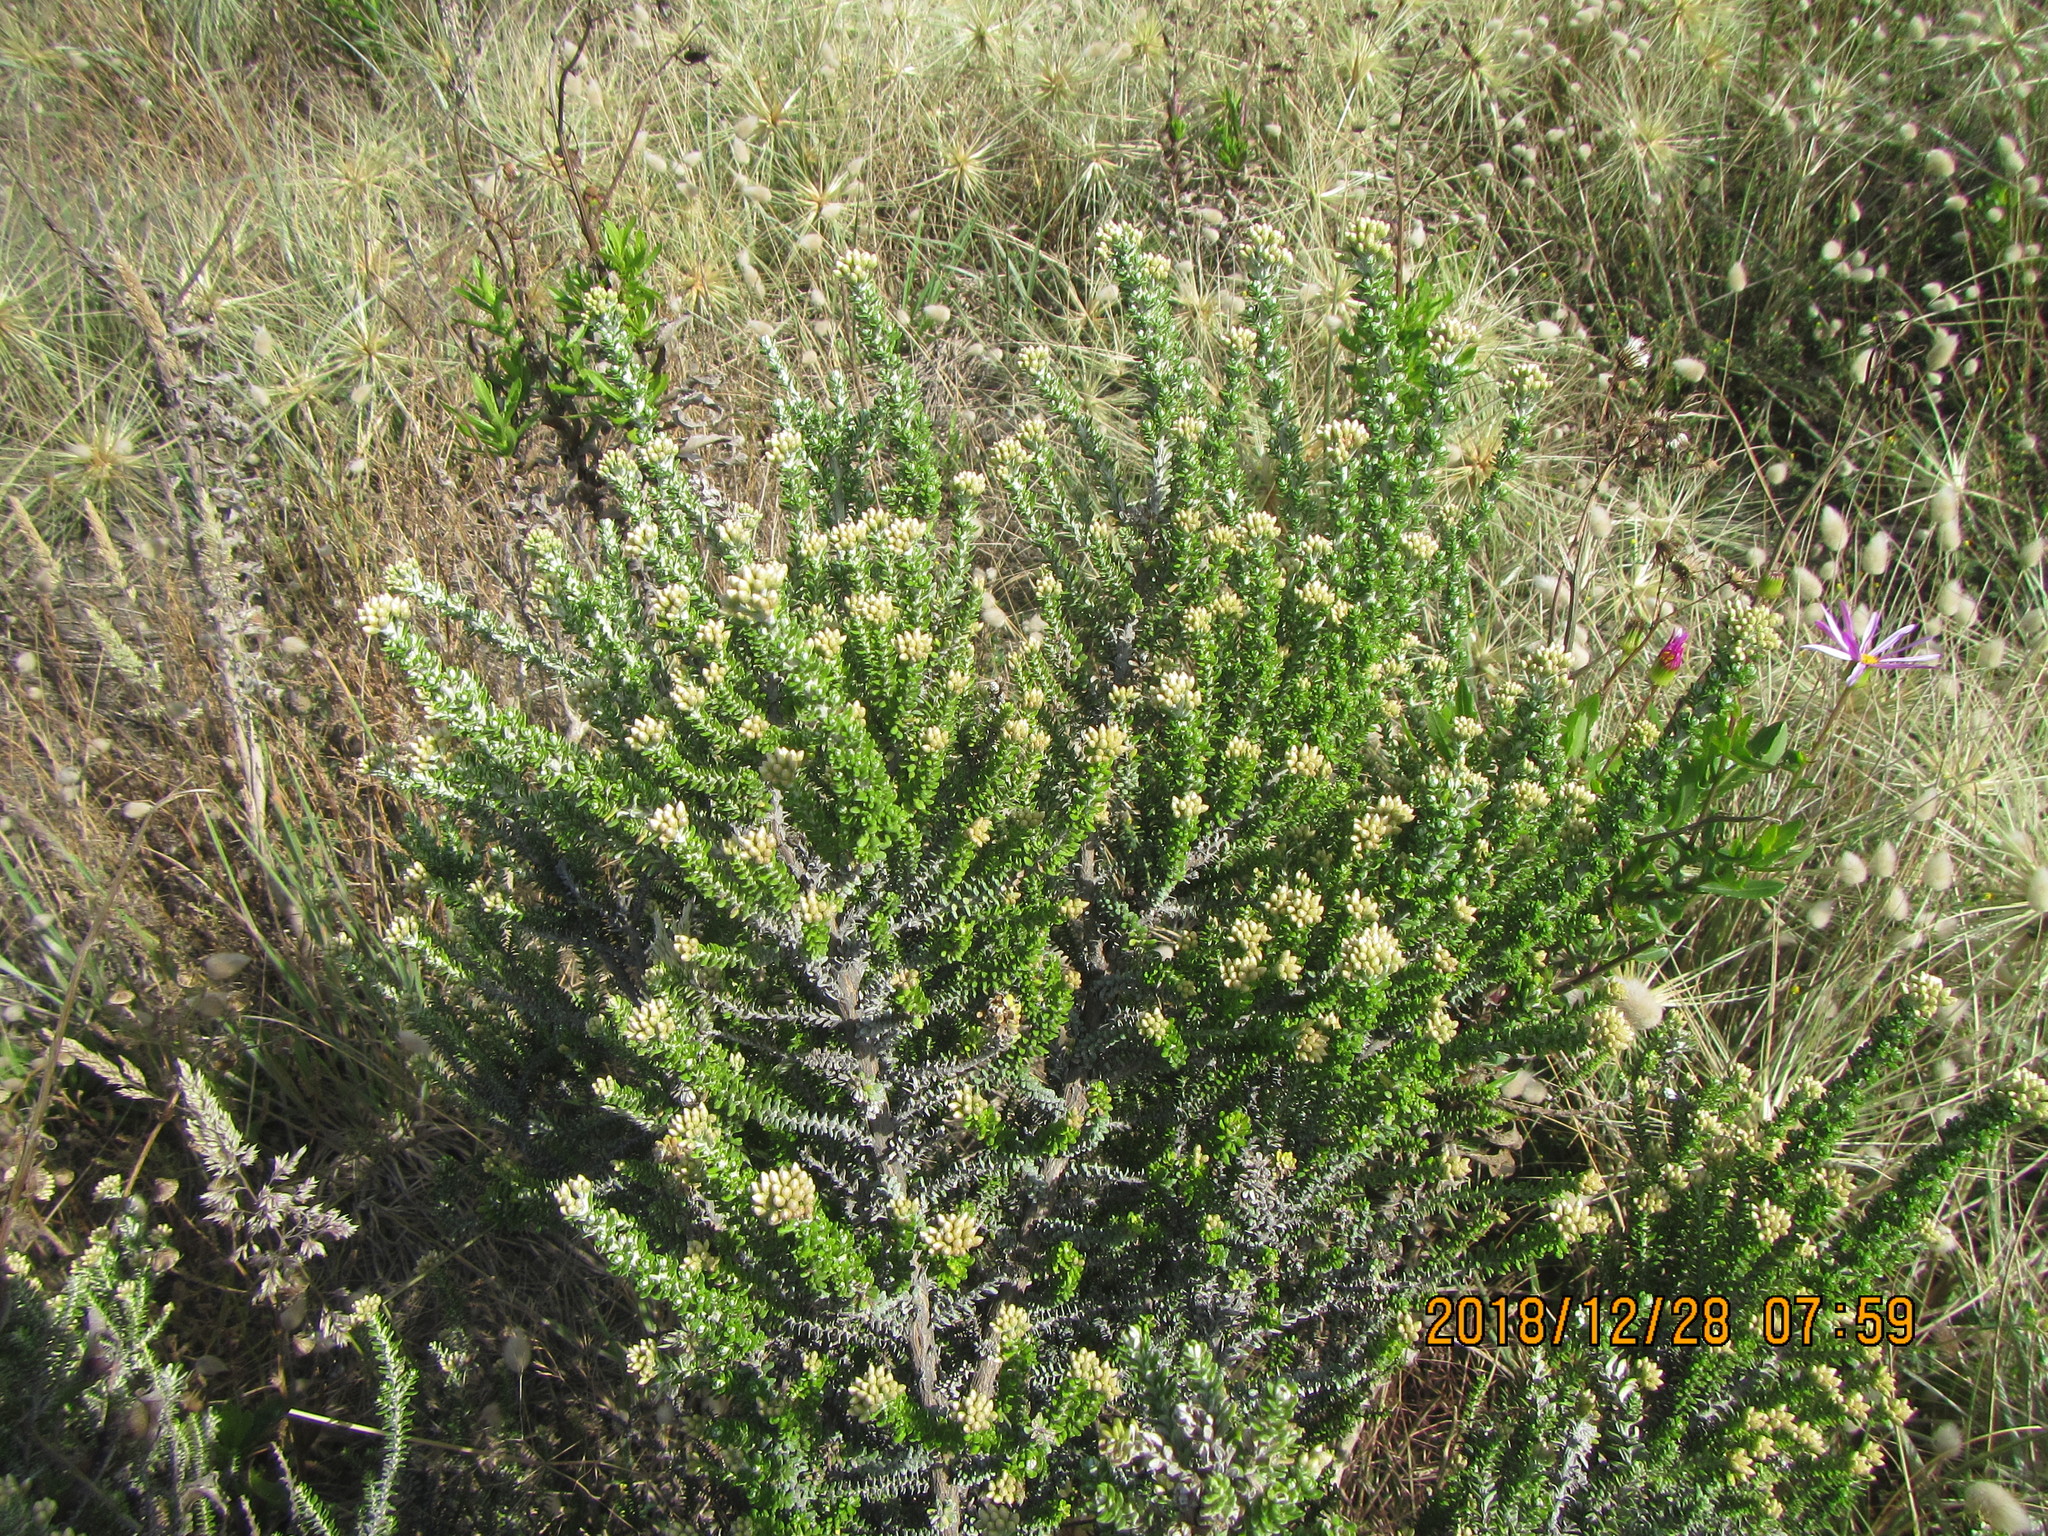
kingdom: Plantae
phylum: Tracheophyta
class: Magnoliopsida
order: Asterales
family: Asteraceae
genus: Ozothamnus
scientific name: Ozothamnus leptophyllus
